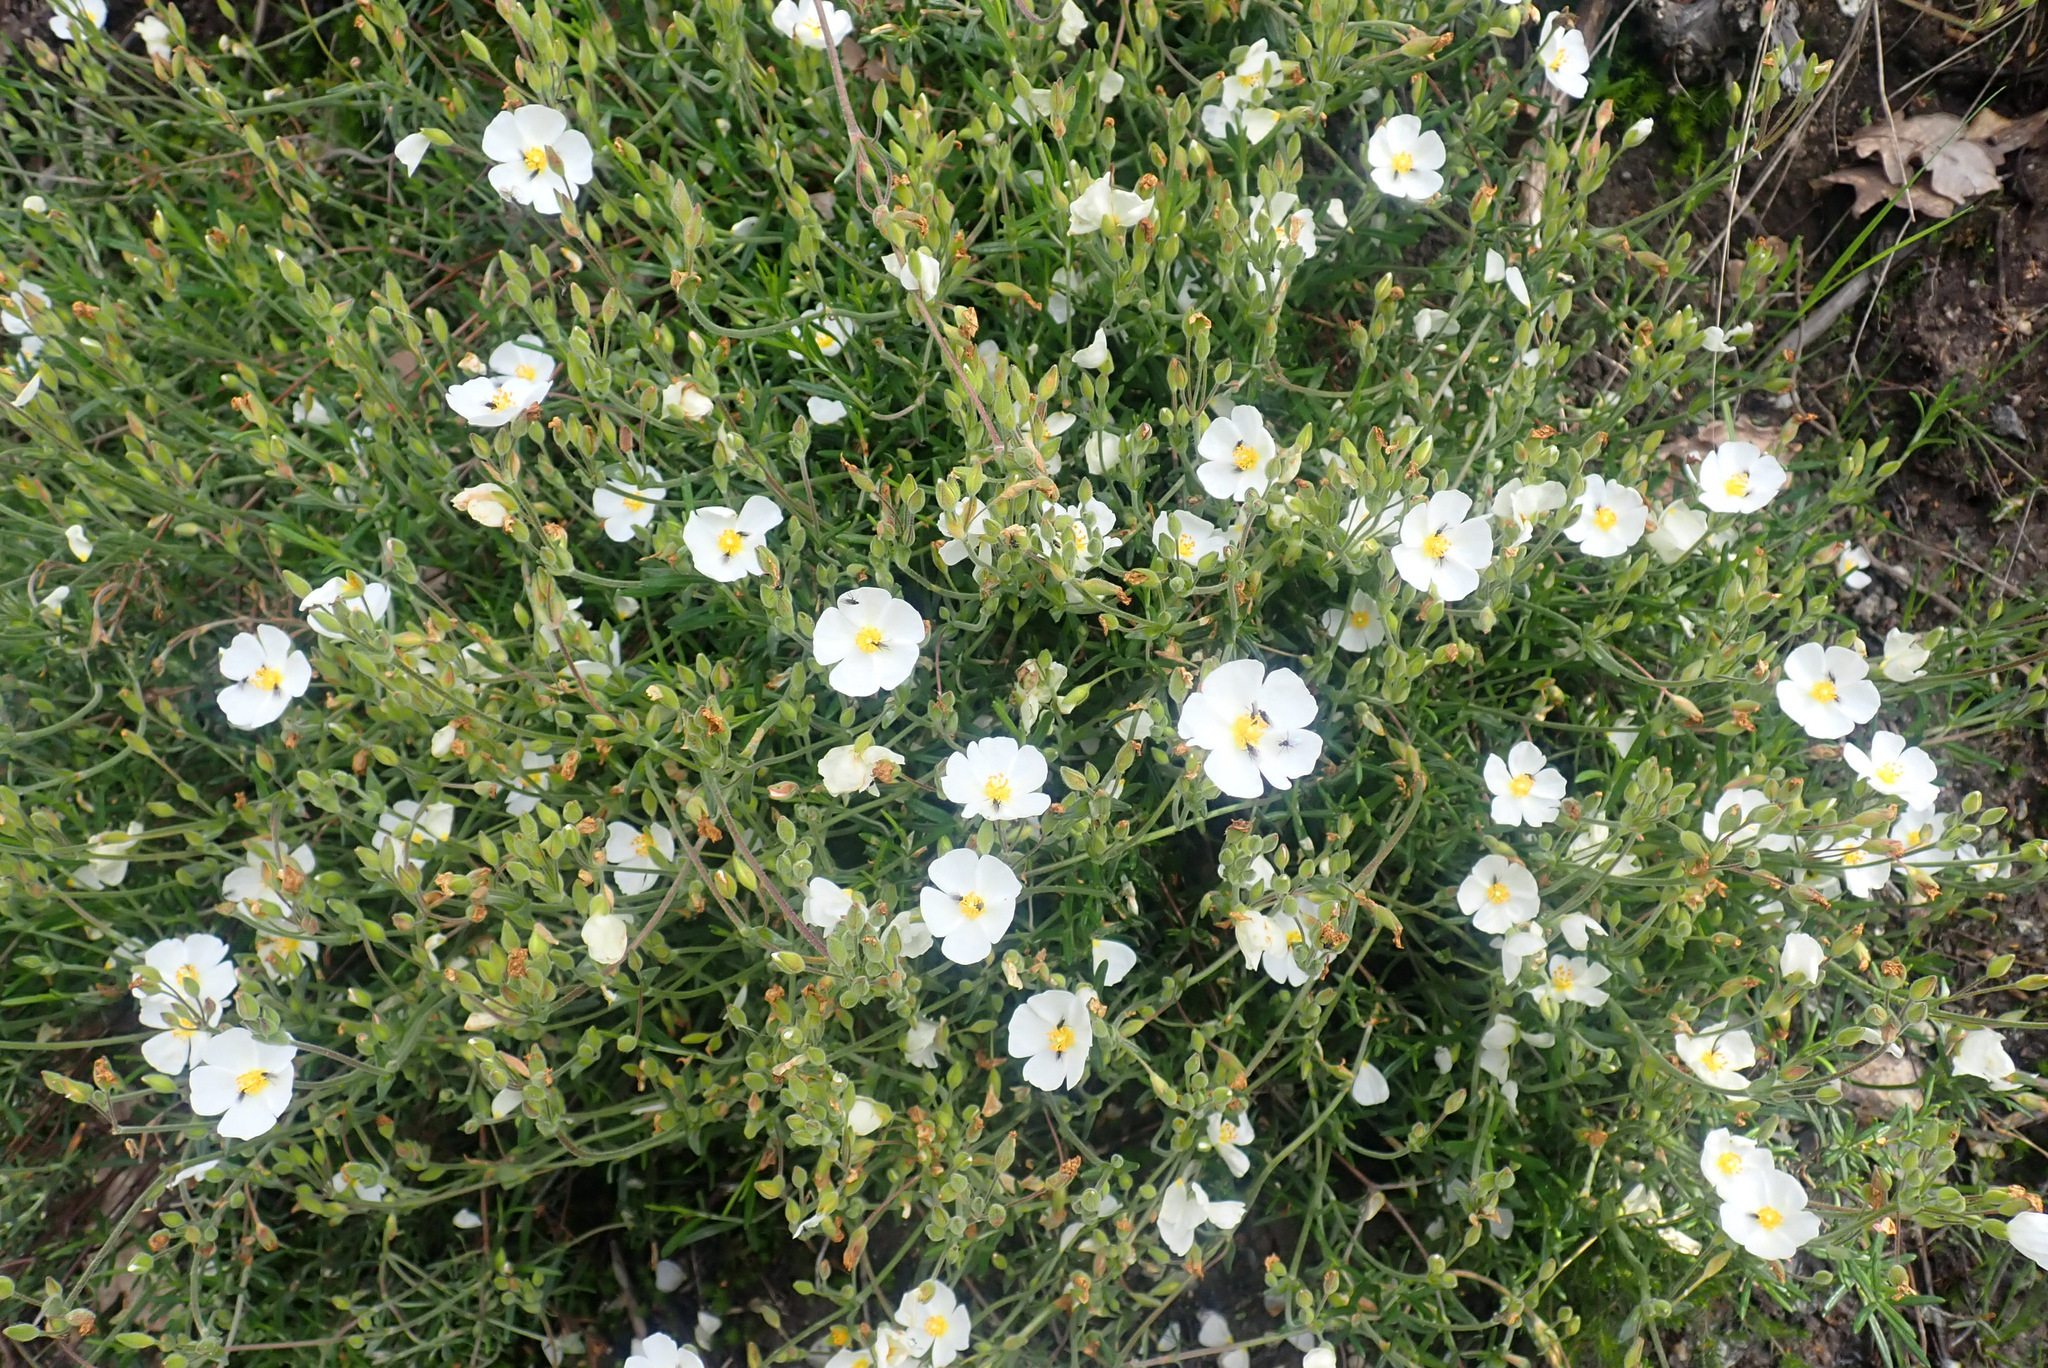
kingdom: Plantae
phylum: Tracheophyta
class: Magnoliopsida
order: Malvales
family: Cistaceae
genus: Halimium
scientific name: Halimium umbellatum
